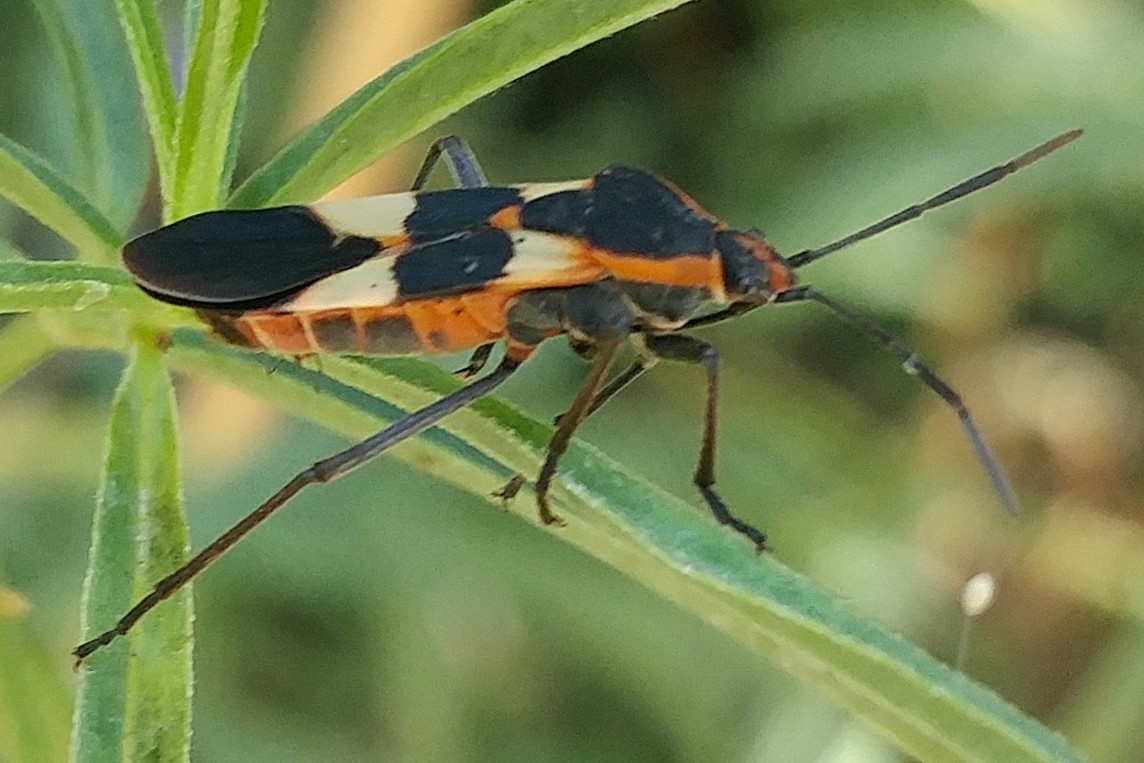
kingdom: Animalia
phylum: Arthropoda
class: Insecta
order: Hemiptera
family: Lygaeidae
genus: Oncopeltus
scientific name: Oncopeltus fasciatus
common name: Large milkweed bug
